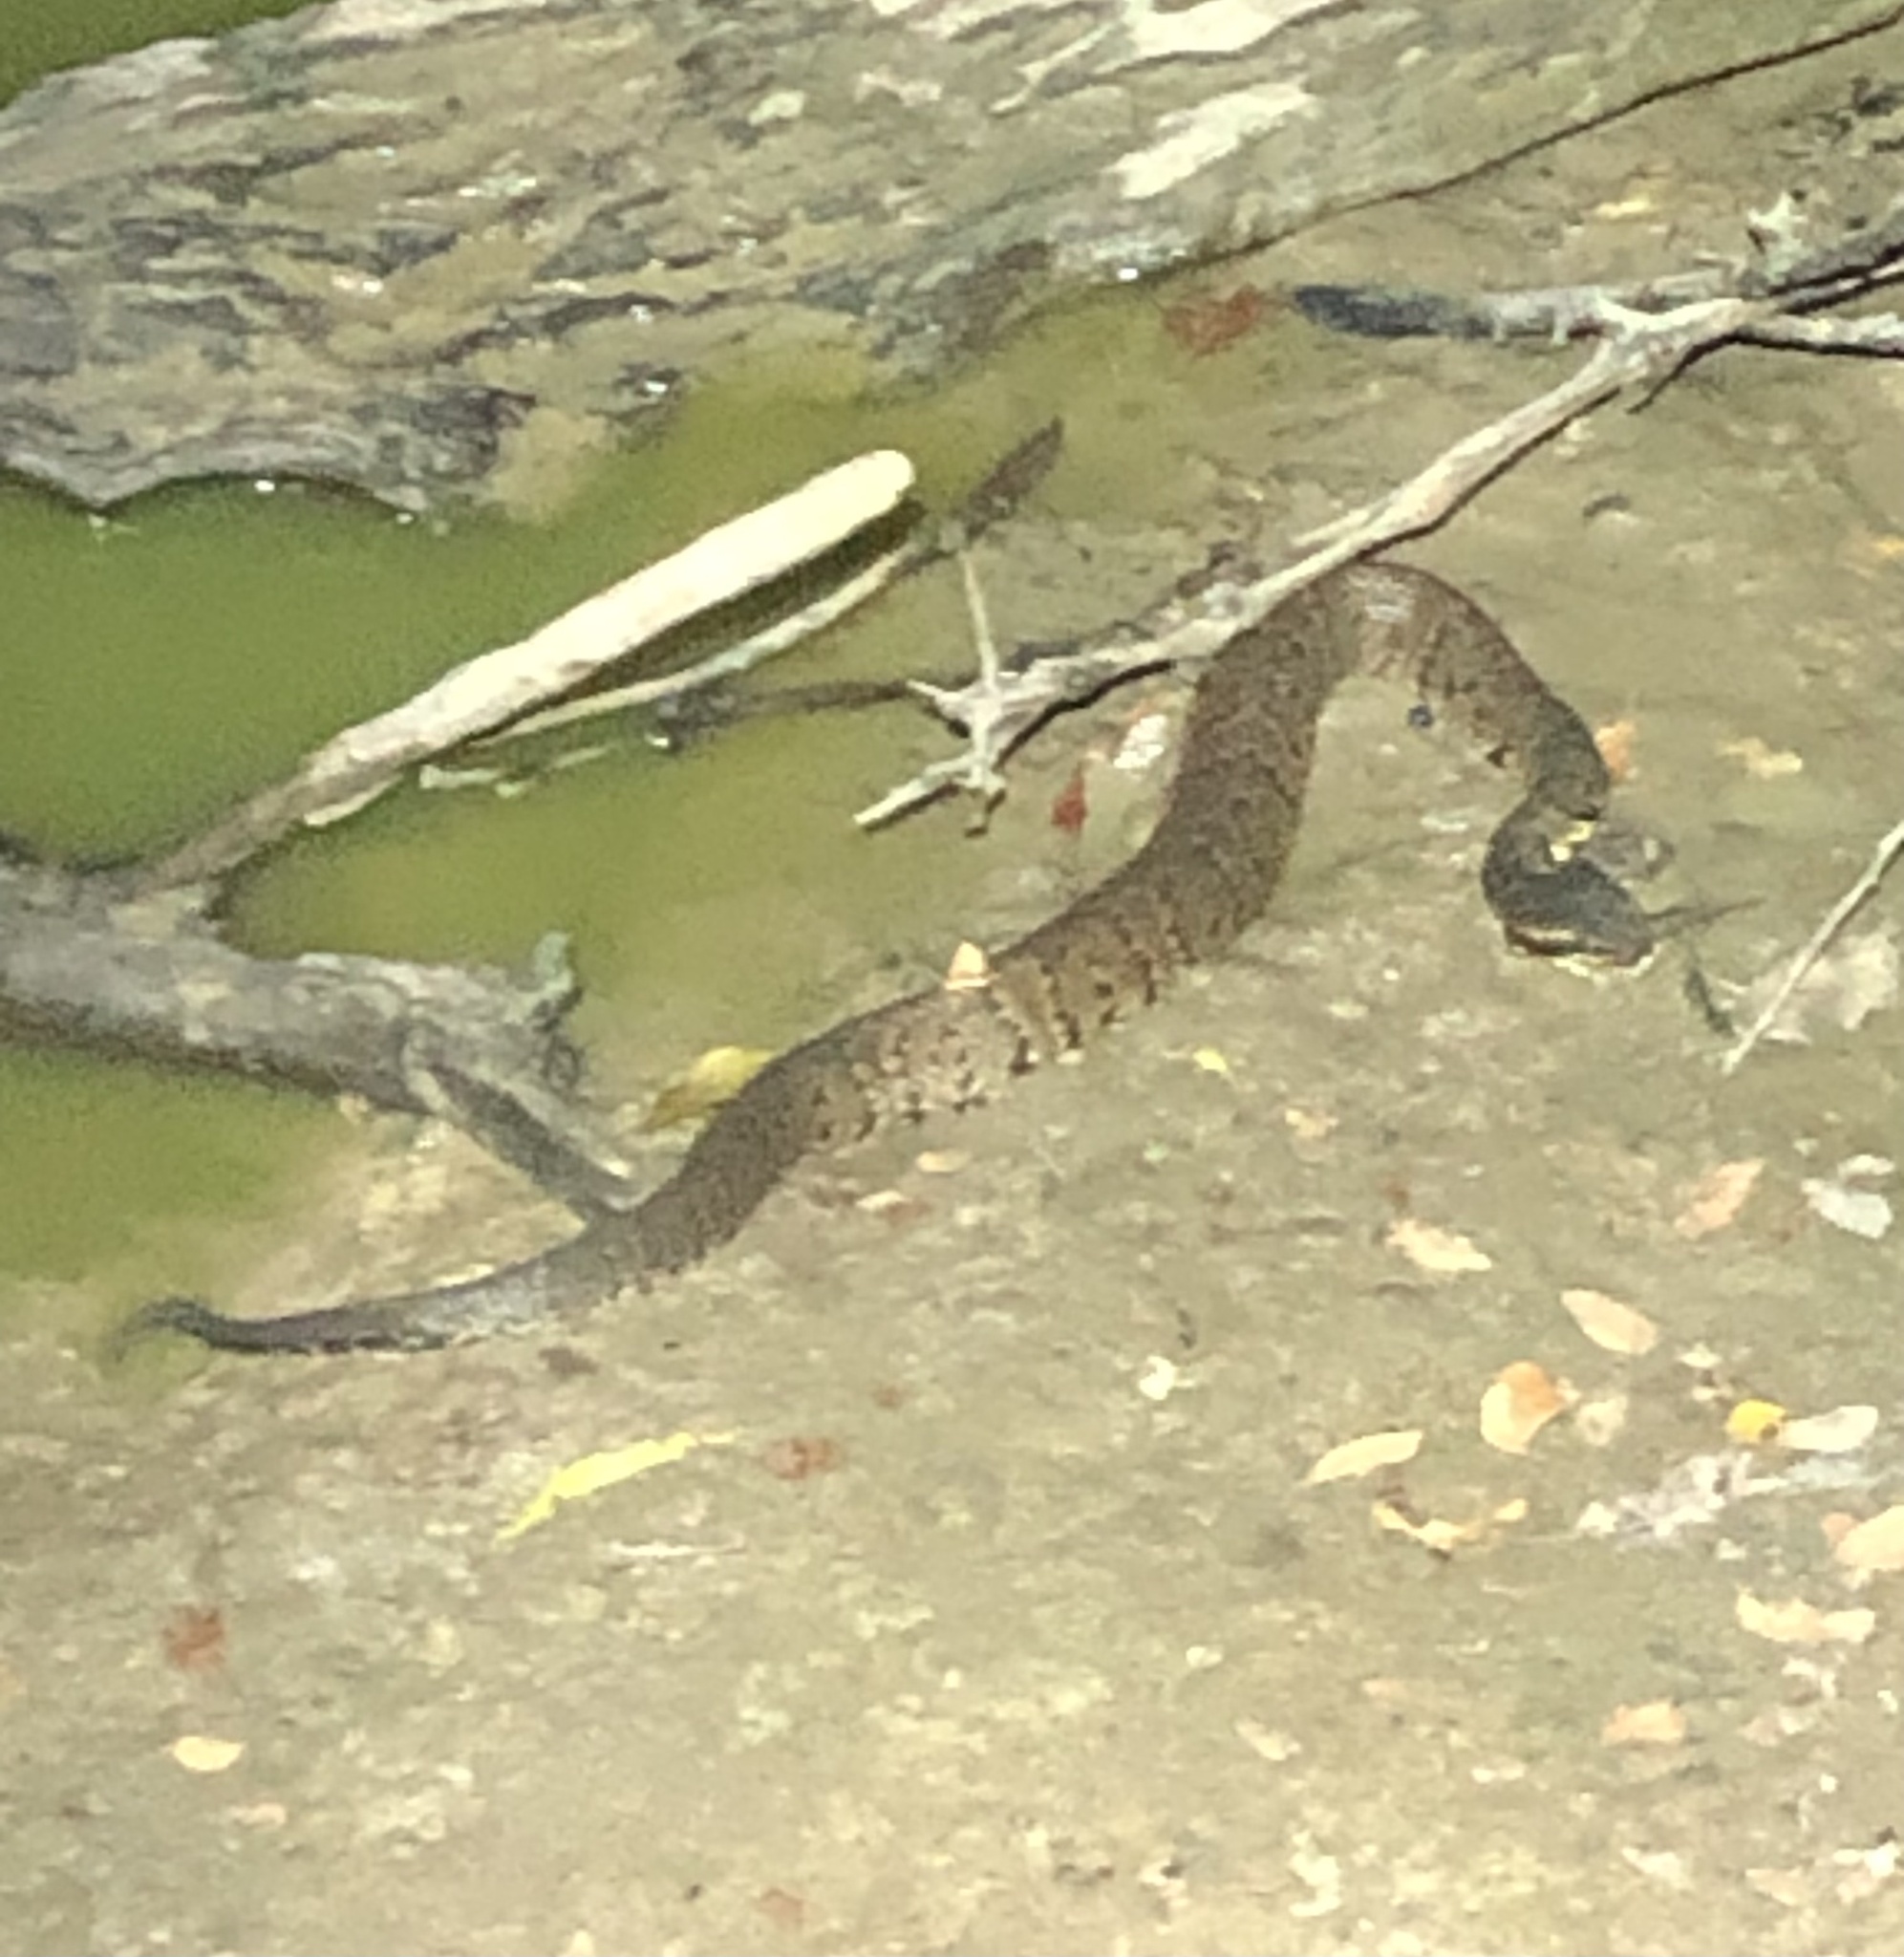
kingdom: Animalia
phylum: Chordata
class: Squamata
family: Viperidae
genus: Agkistrodon
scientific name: Agkistrodon piscivorus
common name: Cottonmouth
